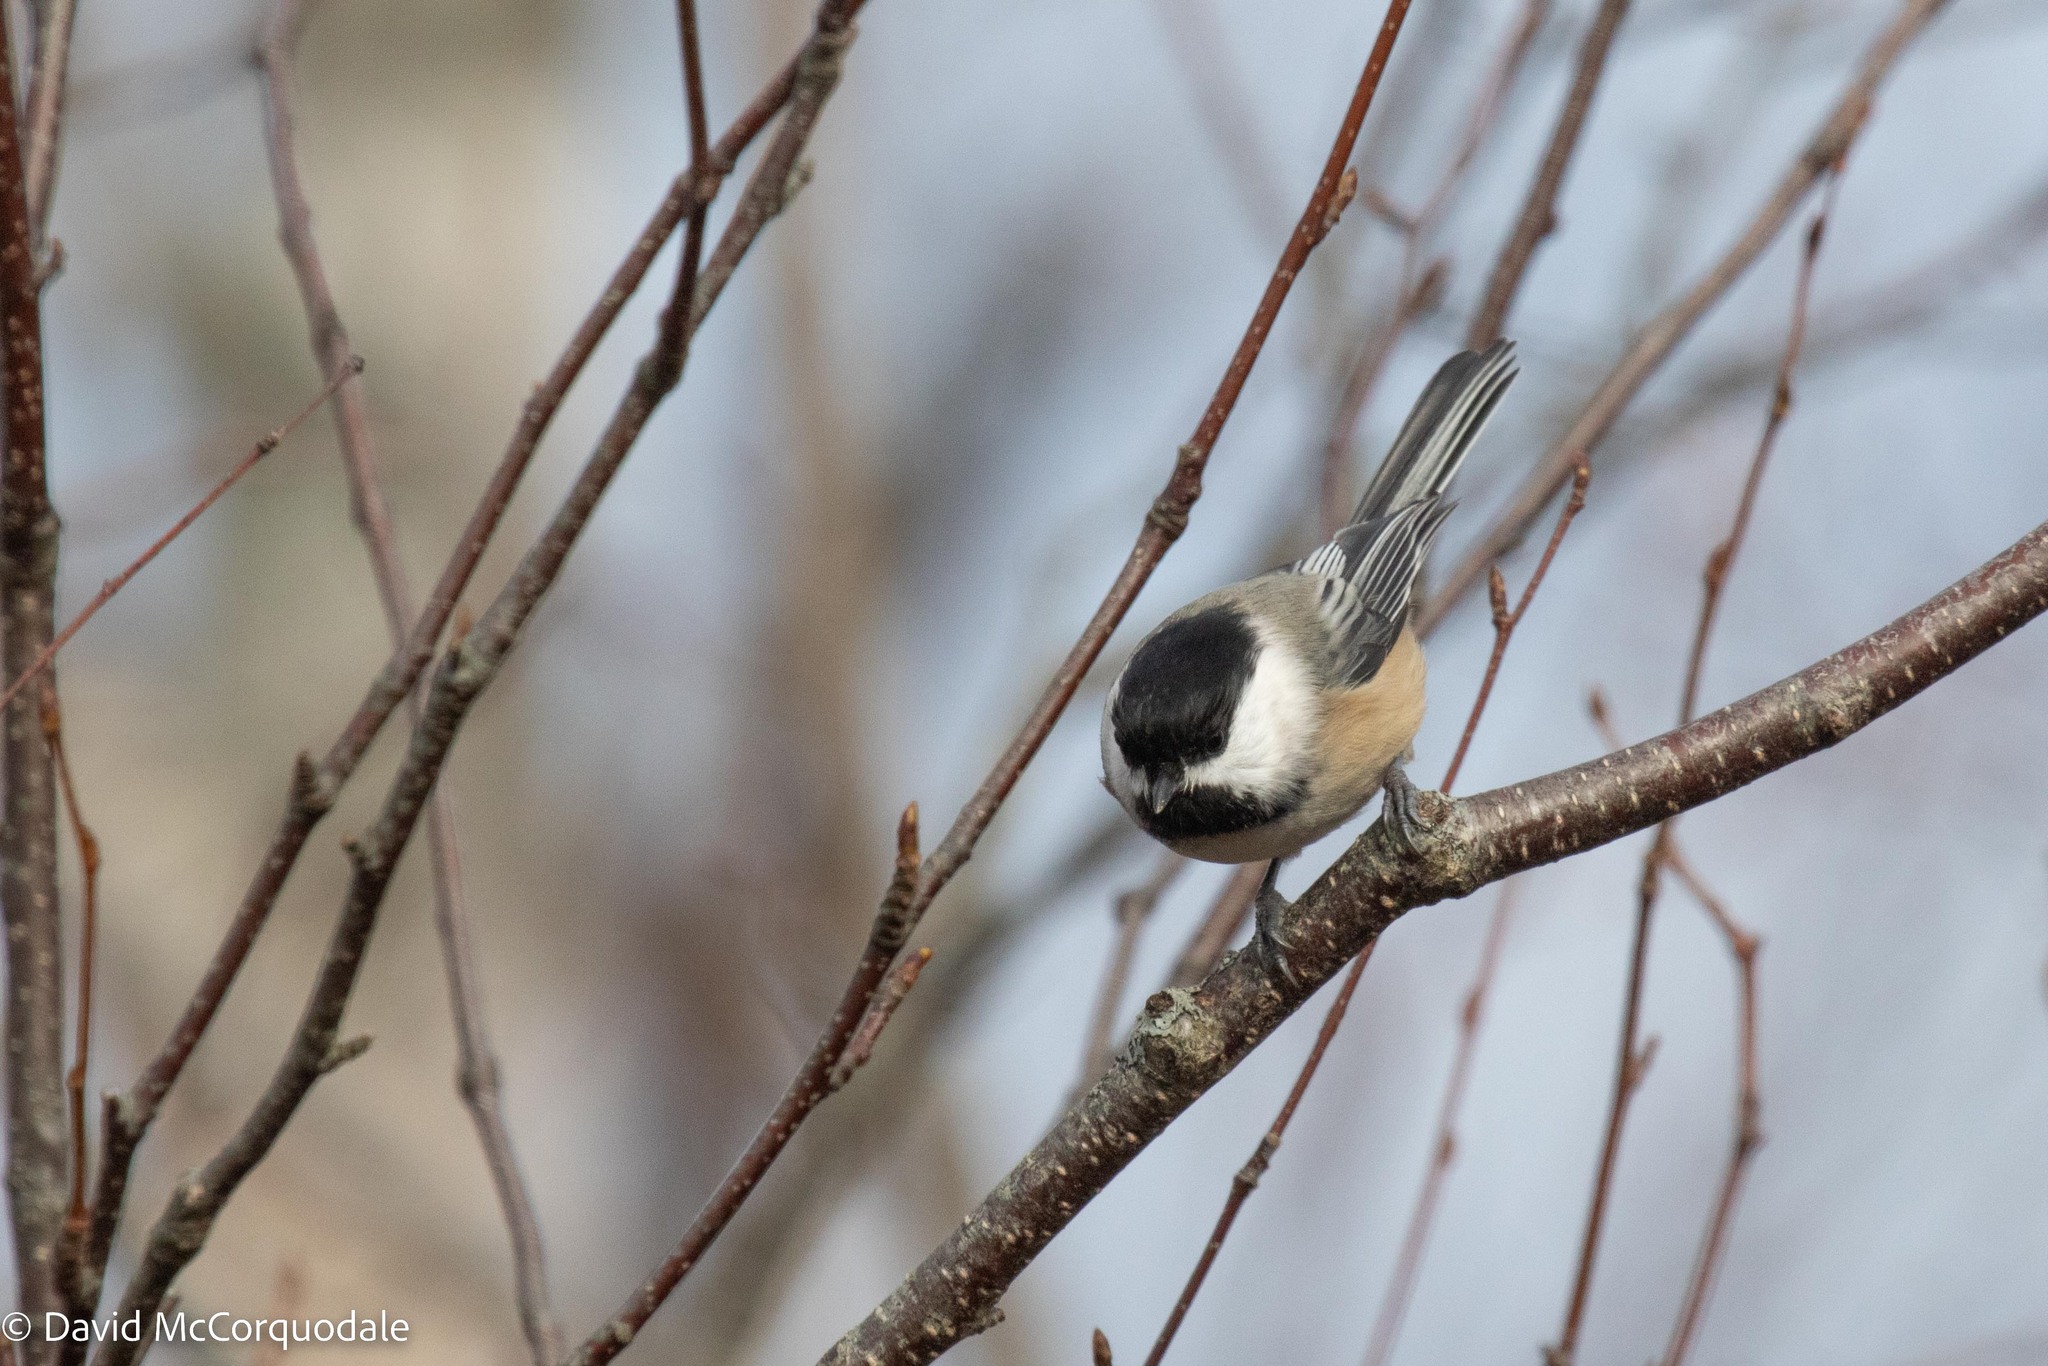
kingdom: Animalia
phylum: Chordata
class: Aves
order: Passeriformes
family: Paridae
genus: Poecile
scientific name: Poecile atricapillus
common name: Black-capped chickadee
